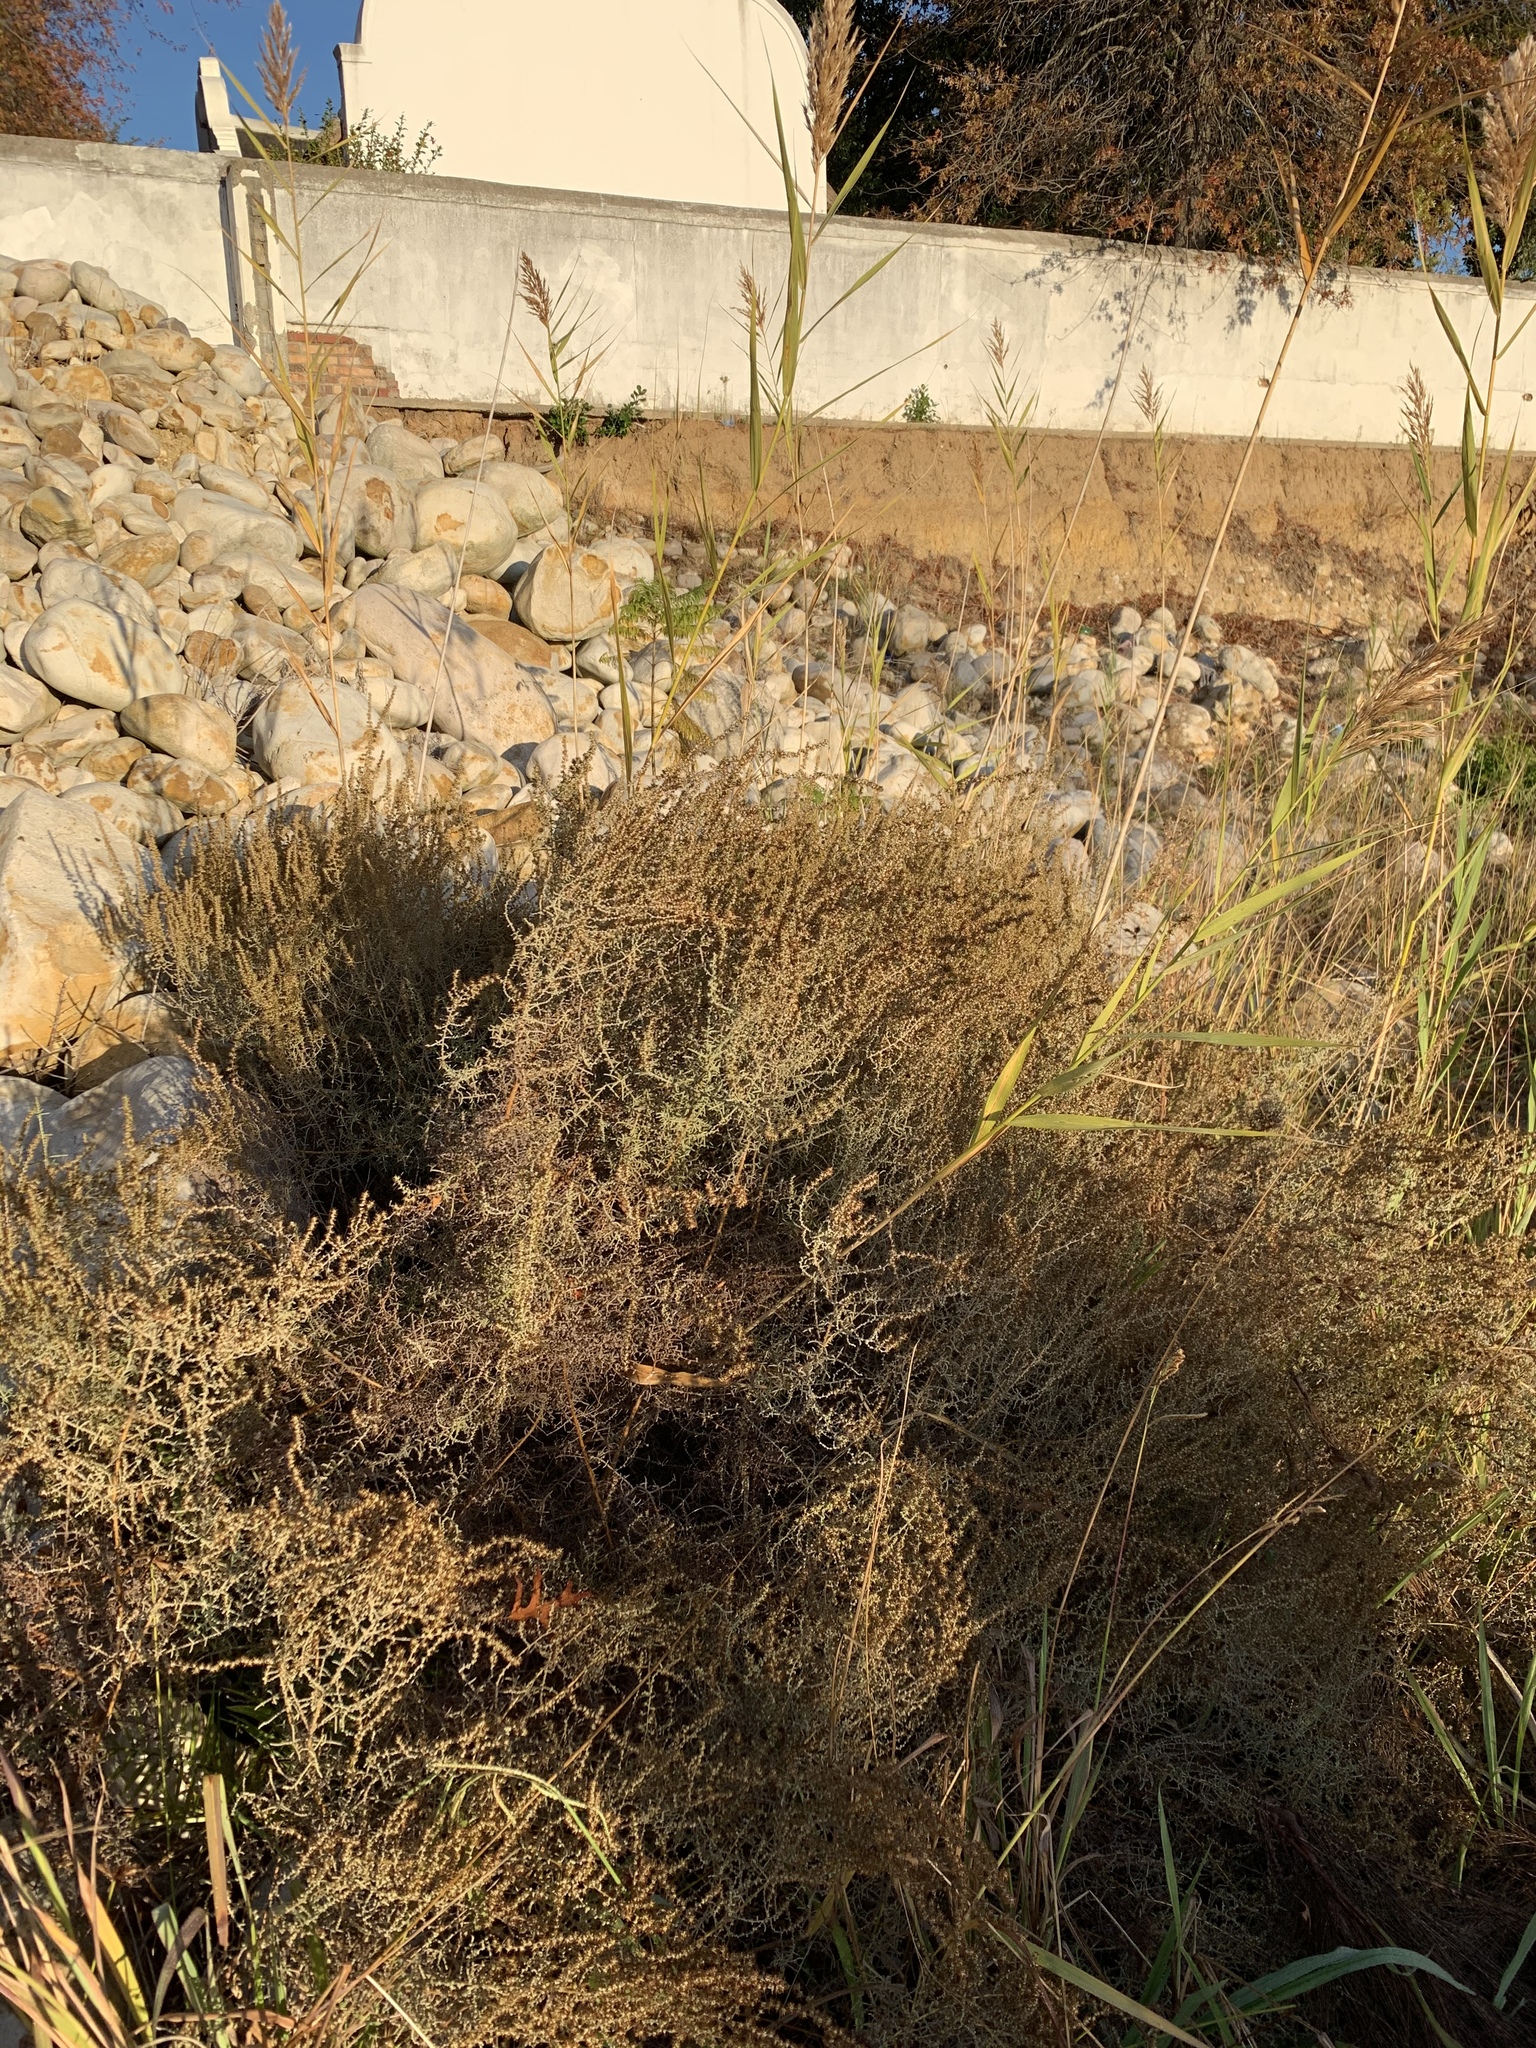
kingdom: Plantae
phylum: Tracheophyta
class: Magnoliopsida
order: Asterales
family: Asteraceae
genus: Seriphium
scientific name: Seriphium plumosum
